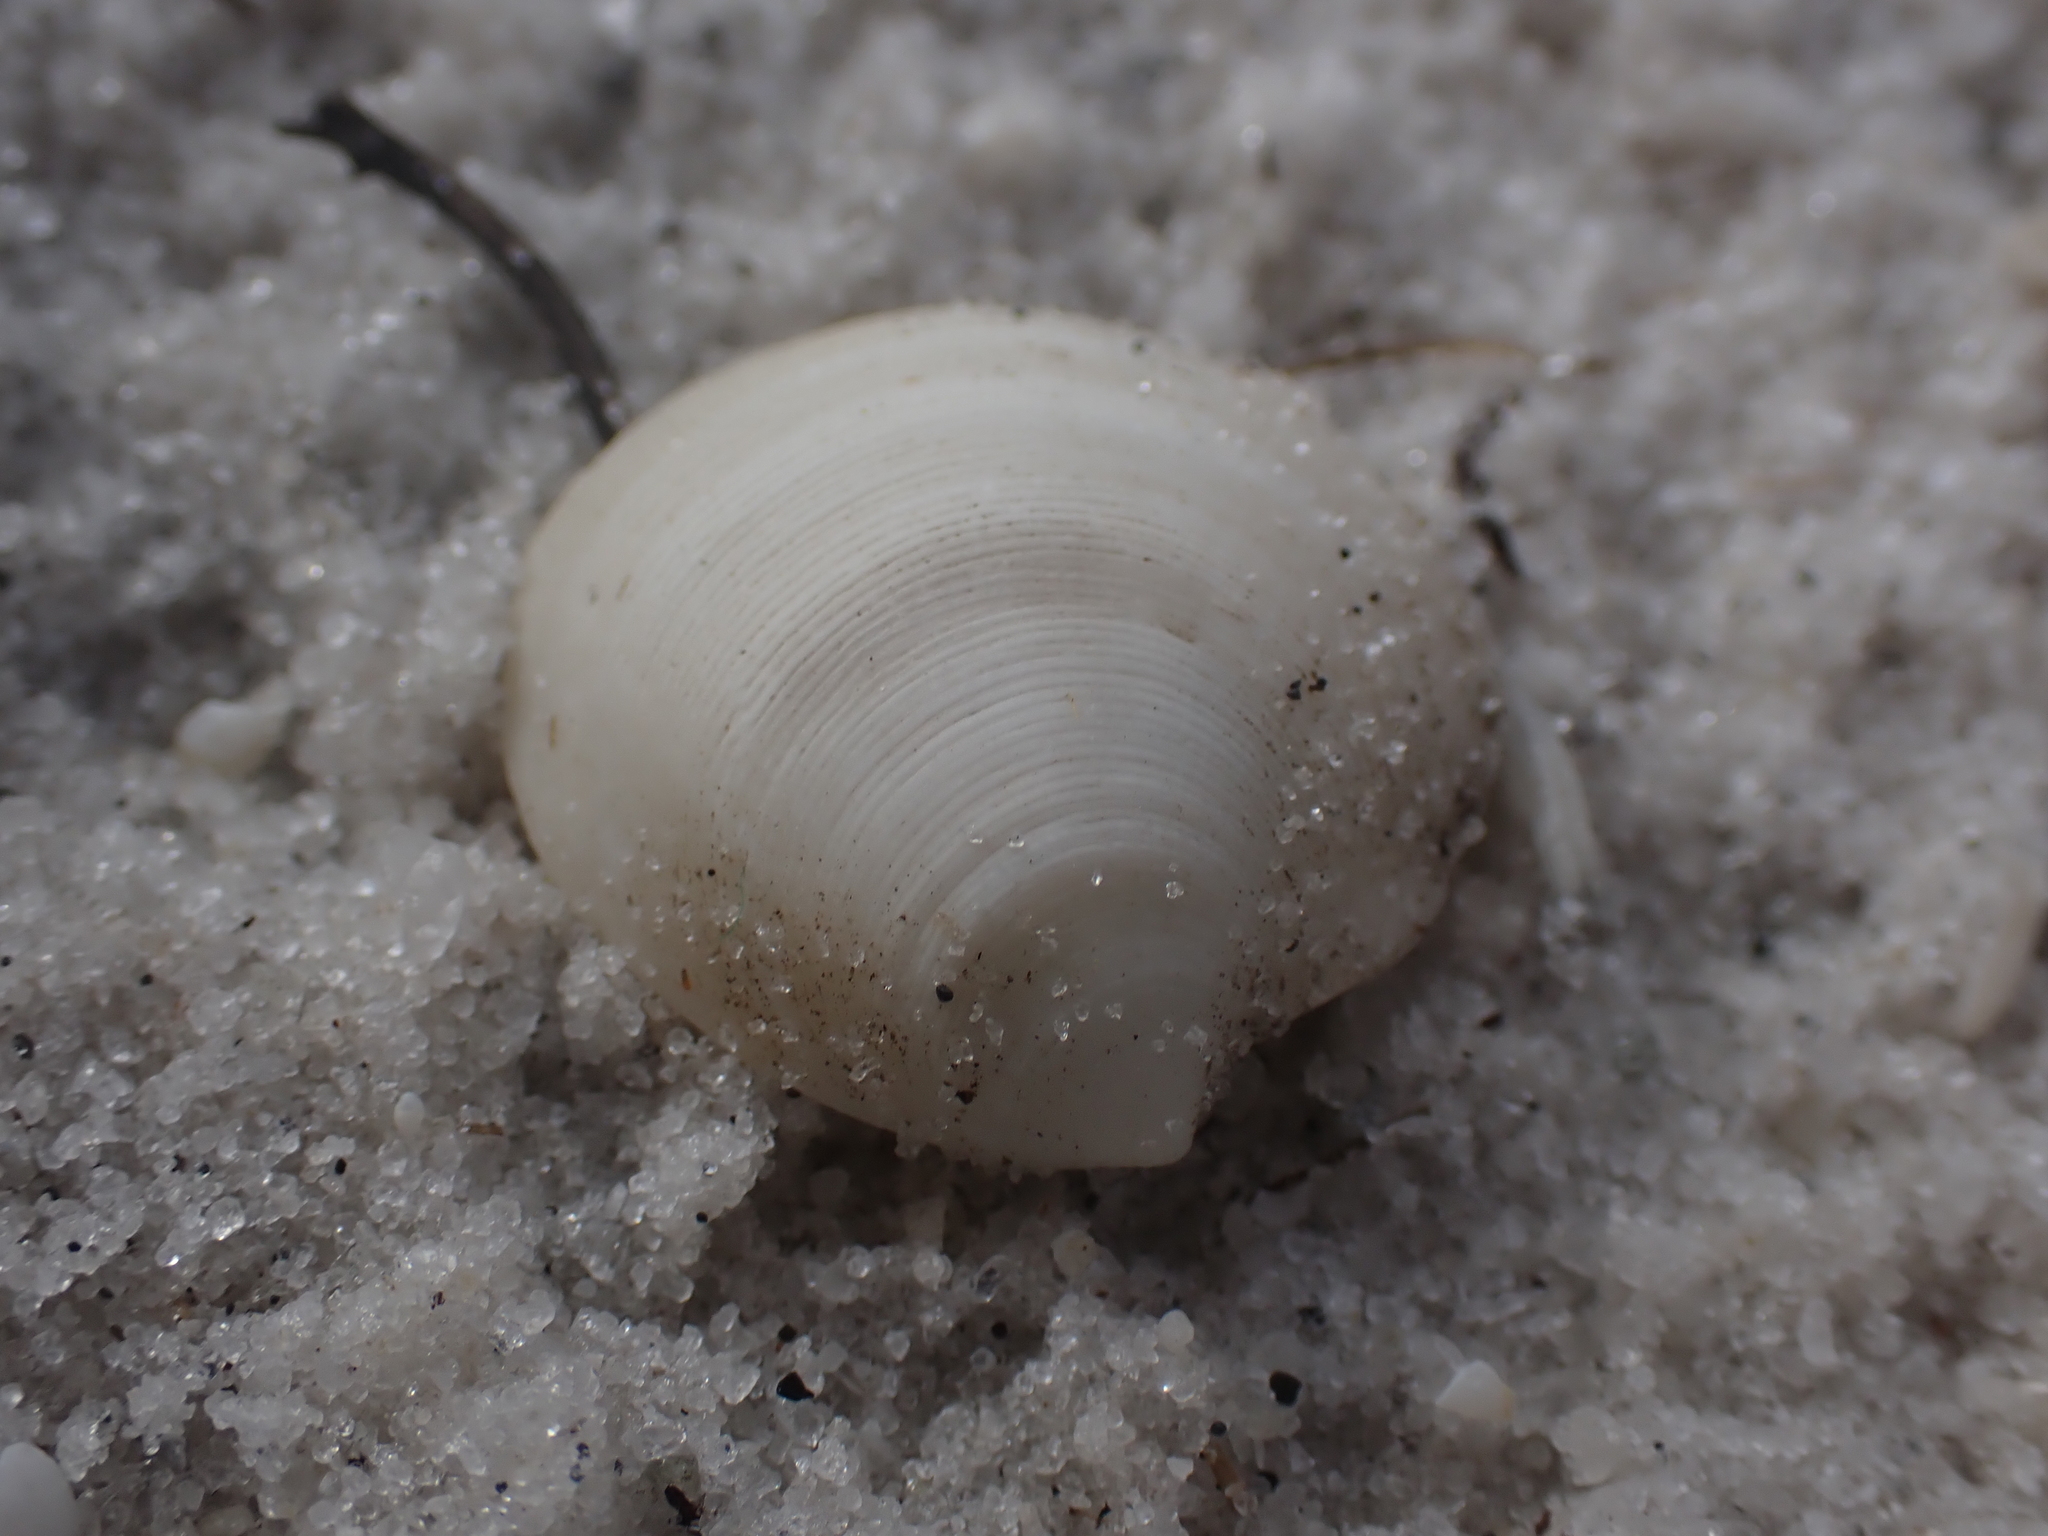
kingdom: Animalia
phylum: Mollusca
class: Bivalvia
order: Lucinida
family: Lucinidae
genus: Callucina
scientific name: Callucina keenae
